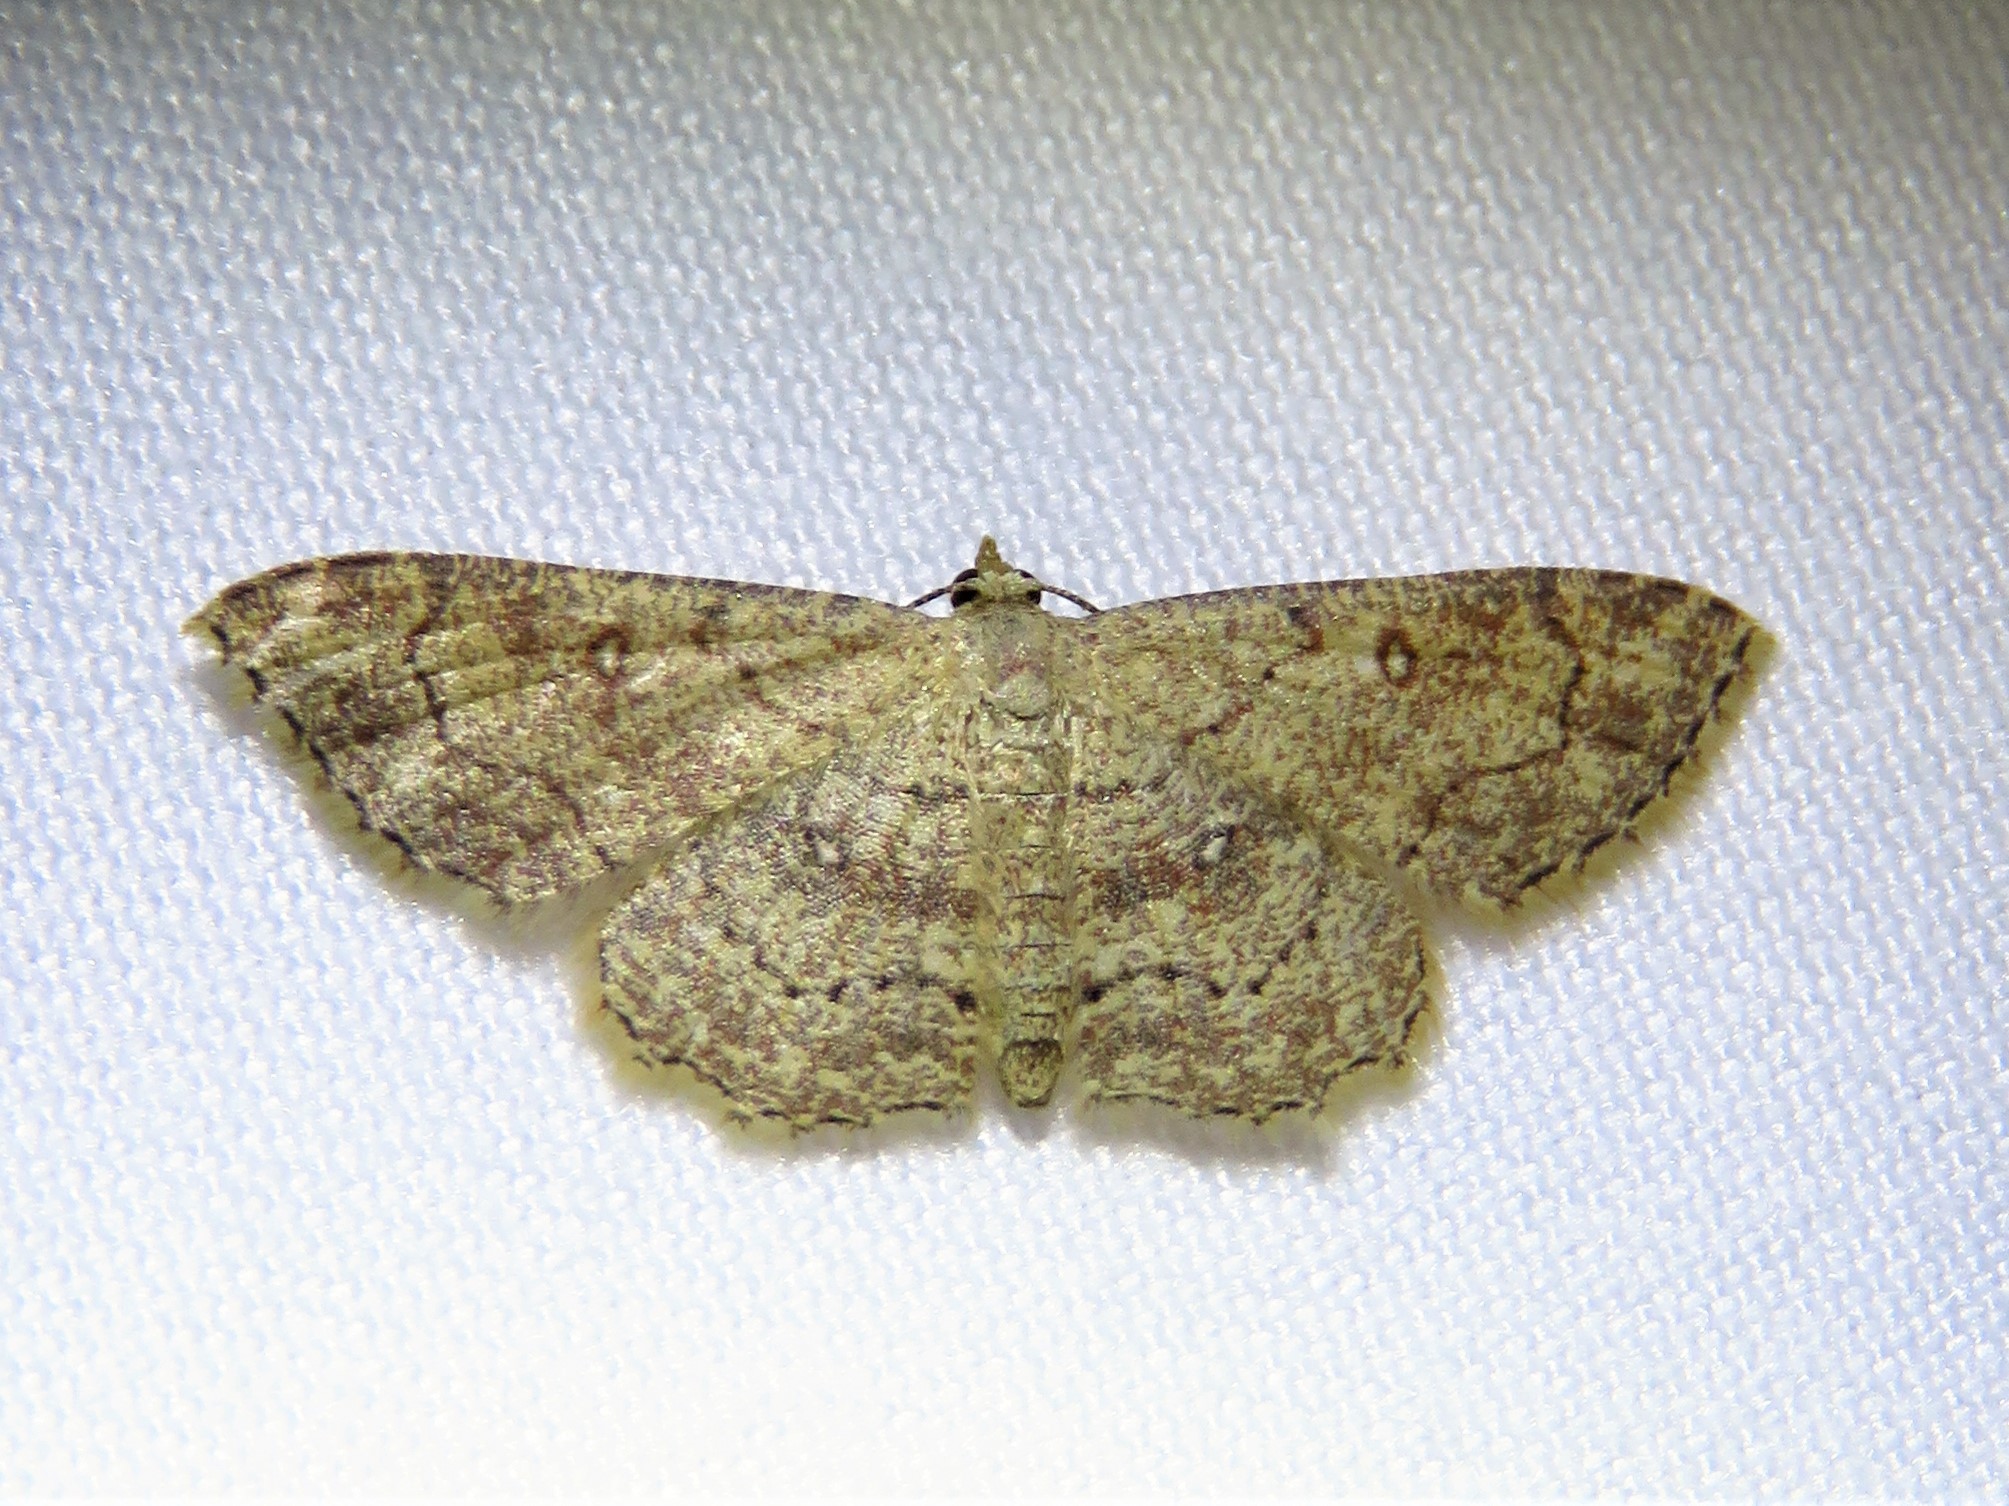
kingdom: Animalia
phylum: Arthropoda
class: Insecta
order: Lepidoptera
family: Geometridae
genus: Cyclophora
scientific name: Cyclophora nanaria
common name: Cankerworm
